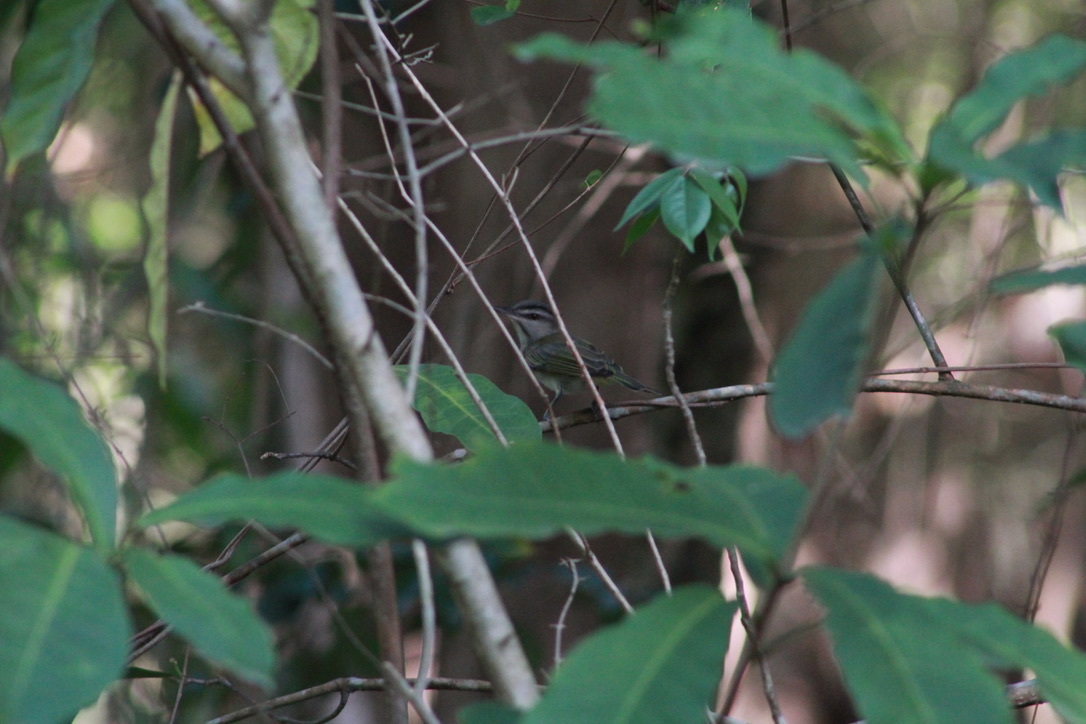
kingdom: Animalia
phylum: Chordata
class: Aves
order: Passeriformes
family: Vireonidae
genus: Vireo
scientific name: Vireo altiloquus
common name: Black-whiskered vireo
